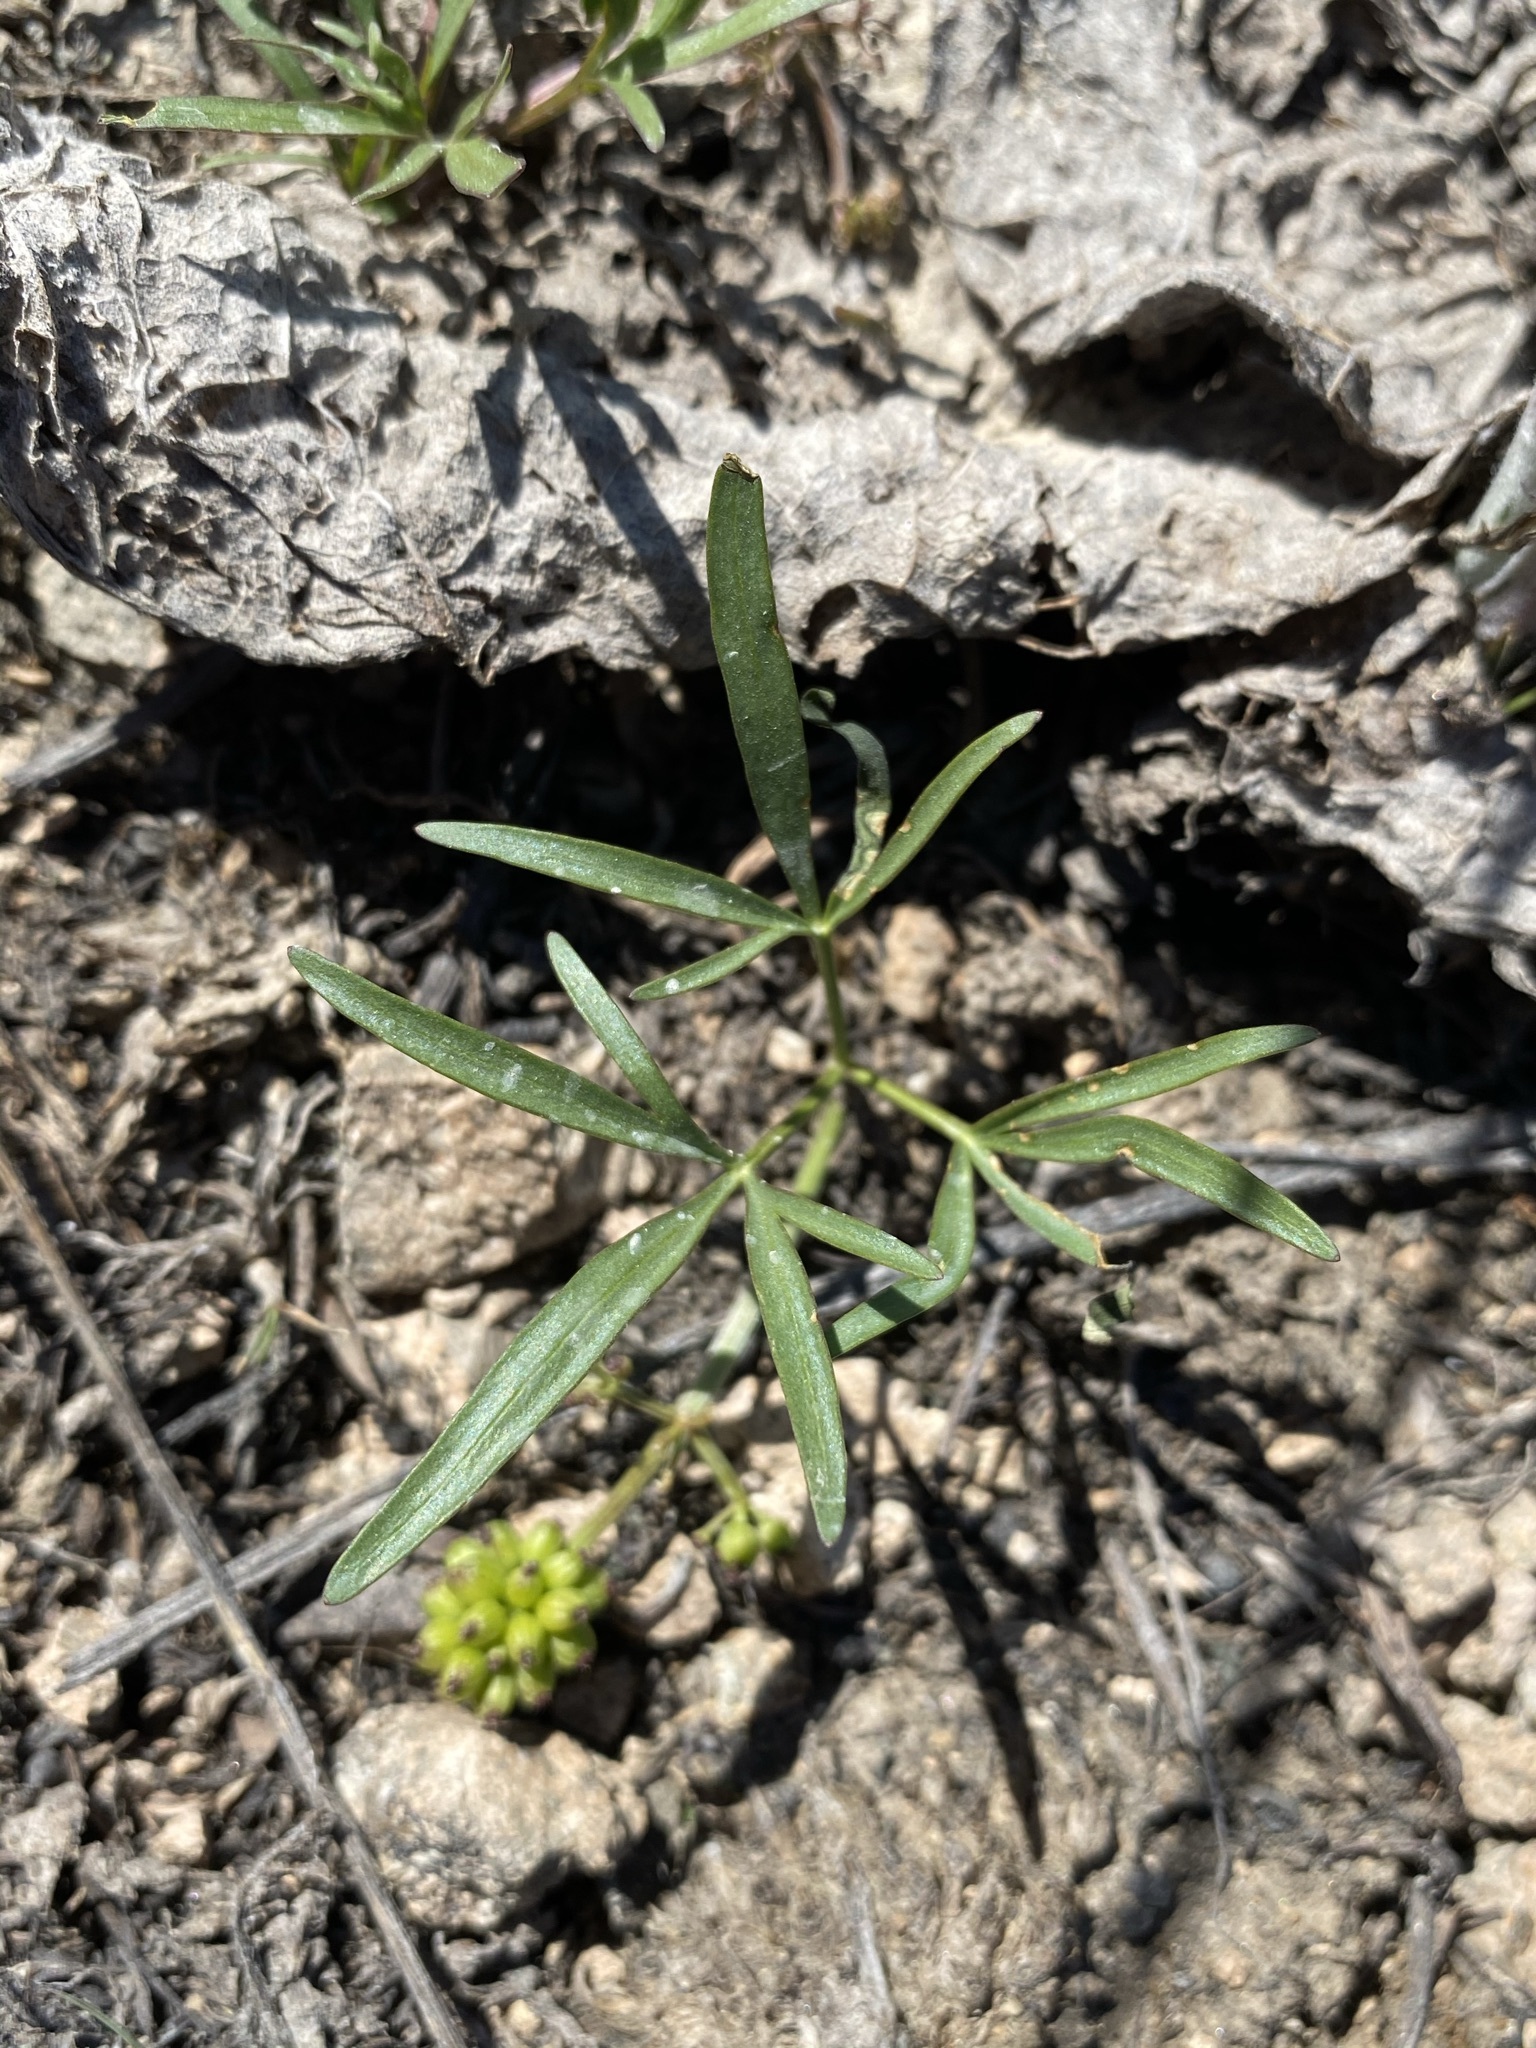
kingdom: Plantae
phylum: Tracheophyta
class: Magnoliopsida
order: Apiales
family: Apiaceae
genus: Lomatium
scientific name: Lomatium linearifolium
